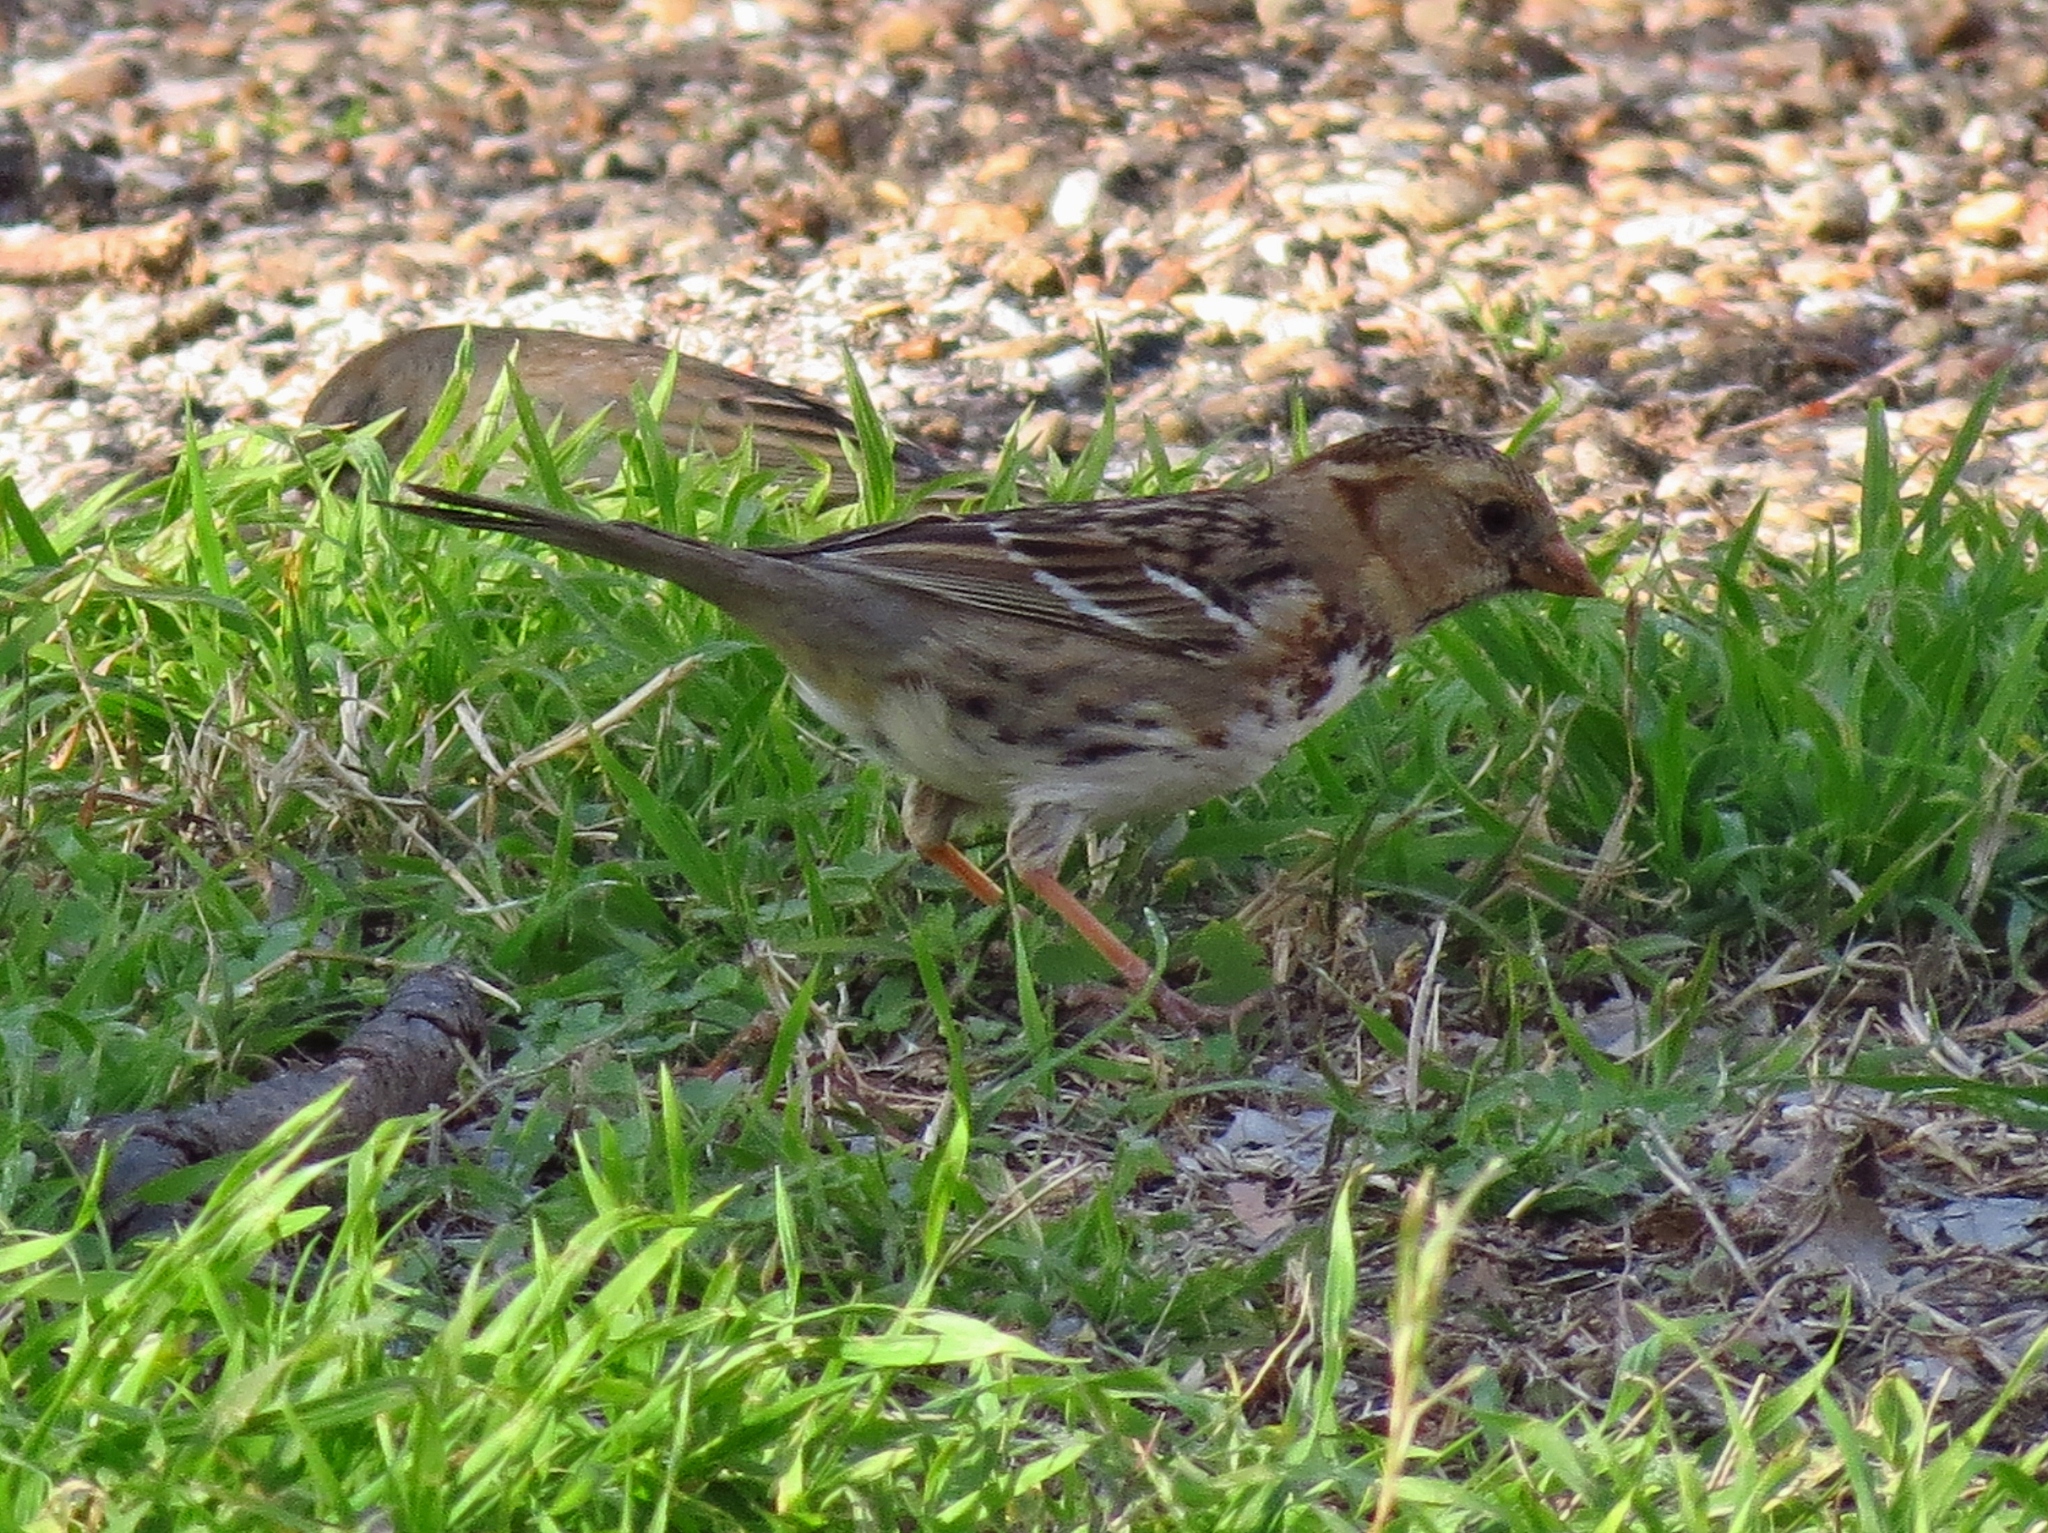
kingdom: Animalia
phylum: Chordata
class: Aves
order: Passeriformes
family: Passerellidae
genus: Zonotrichia
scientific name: Zonotrichia querula
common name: Harris's sparrow
